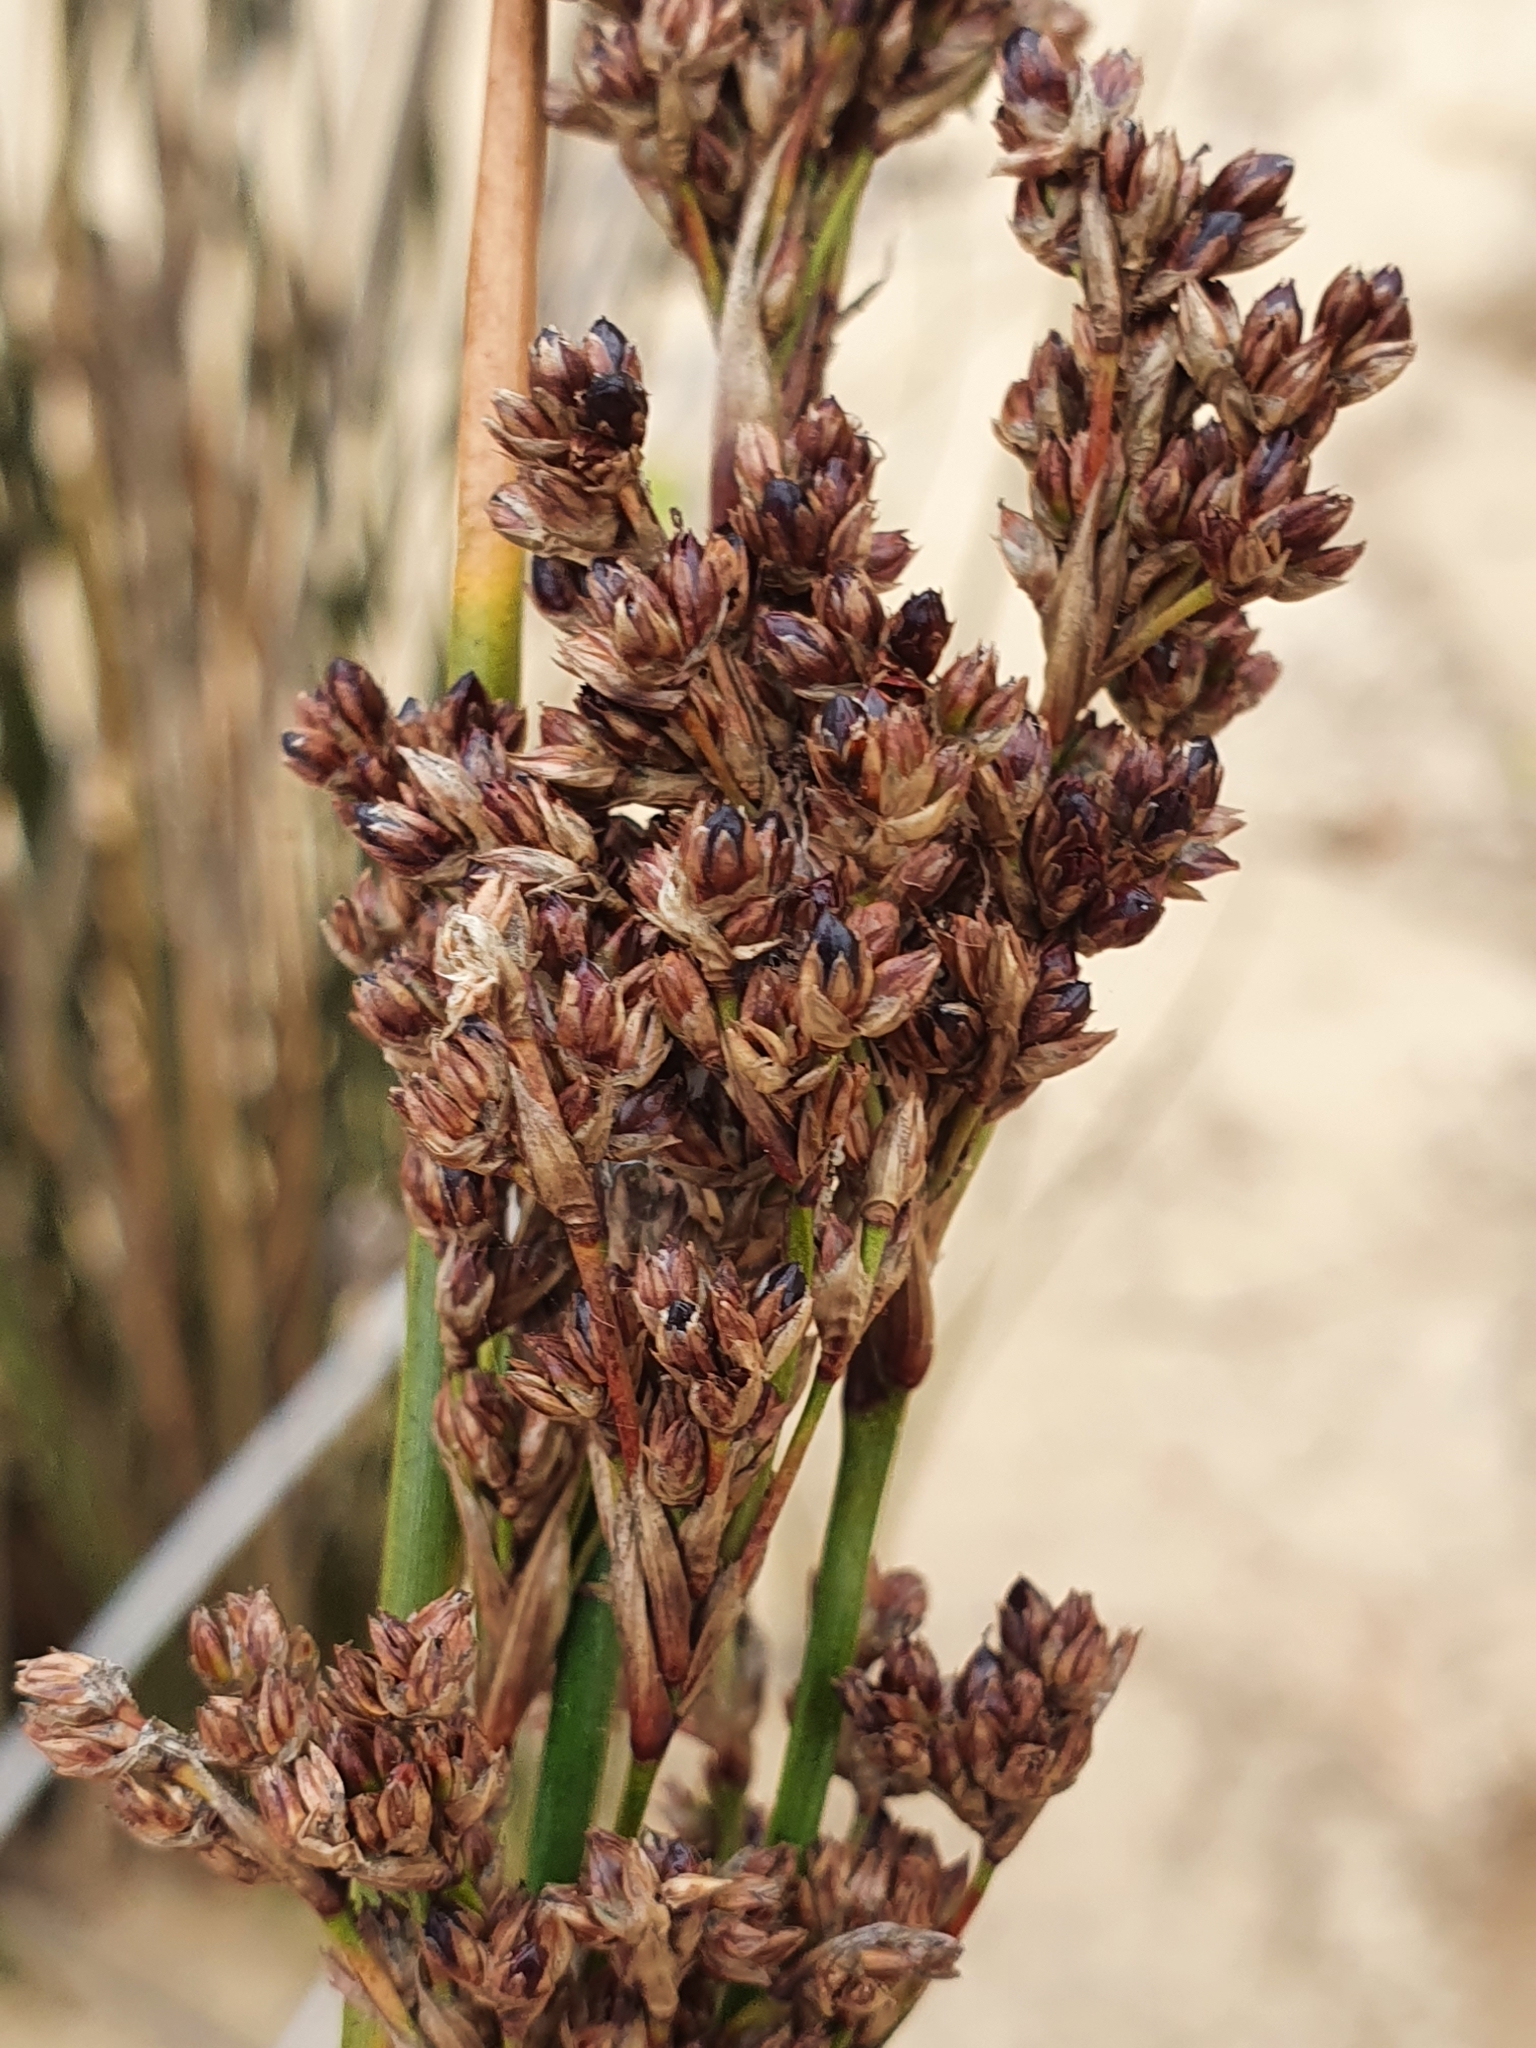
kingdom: Plantae
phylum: Tracheophyta
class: Liliopsida
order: Poales
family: Juncaceae
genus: Juncus
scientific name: Juncus kraussii
